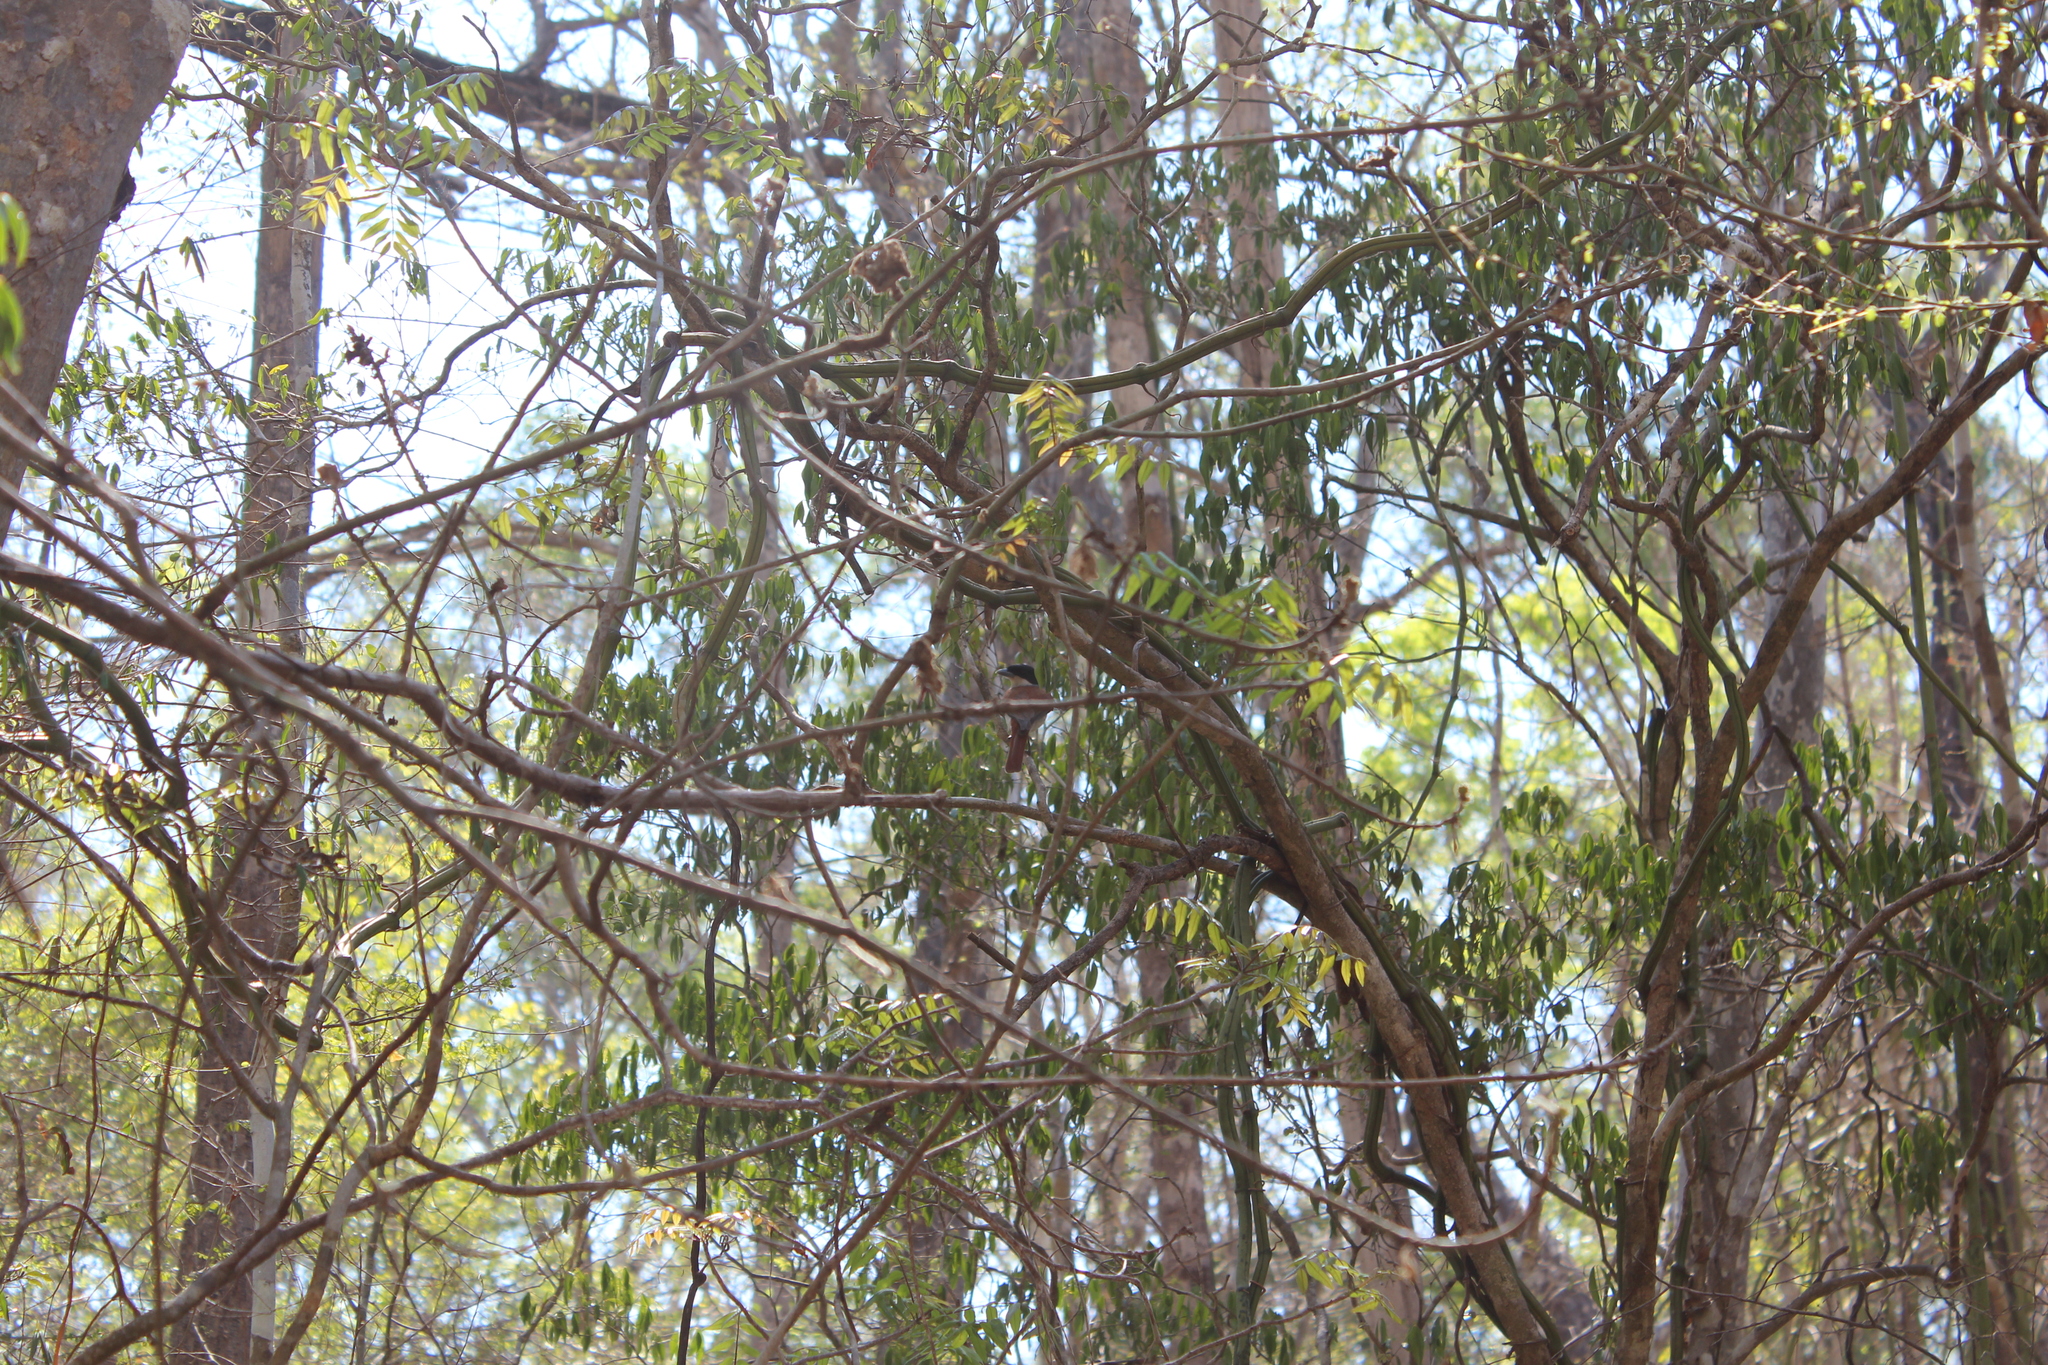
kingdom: Animalia
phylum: Chordata
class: Aves
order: Passeriformes
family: Vangidae
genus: Schetba
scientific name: Schetba rufa
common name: Rufous vanga
